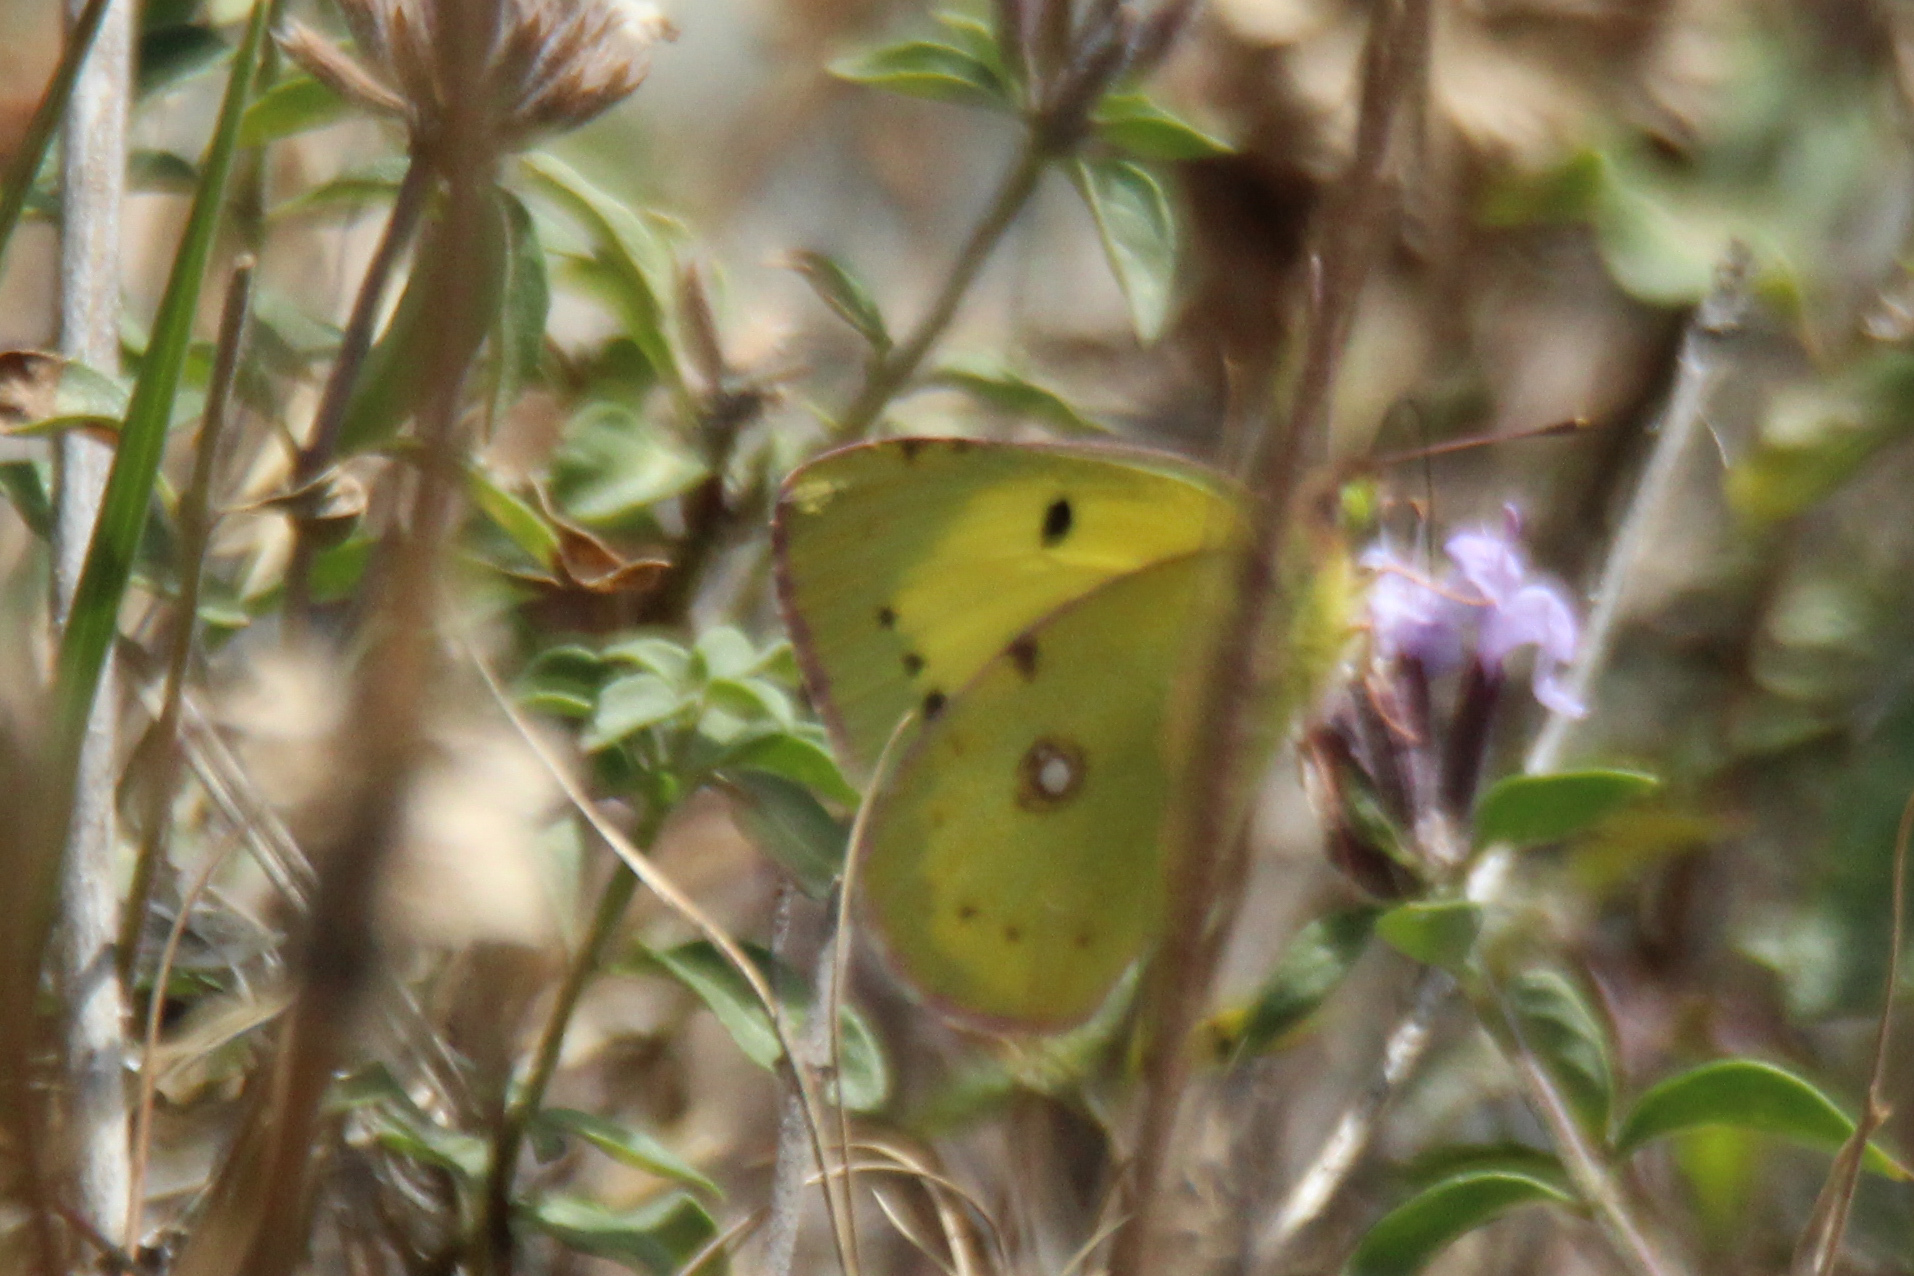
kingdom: Animalia
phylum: Arthropoda
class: Insecta
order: Lepidoptera
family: Pieridae
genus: Colias
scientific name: Colias erate
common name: Eastern pale clouded yellow
